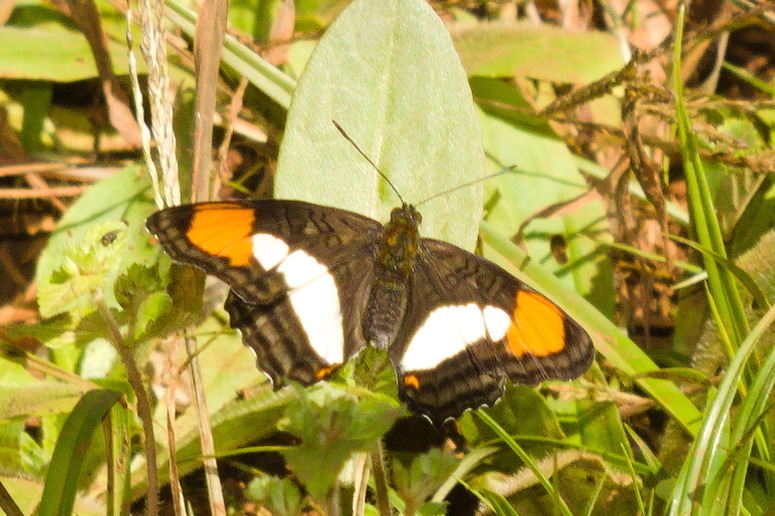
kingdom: Animalia
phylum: Arthropoda
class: Insecta
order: Lepidoptera
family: Nymphalidae
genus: Limenitis
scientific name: Limenitis zea
